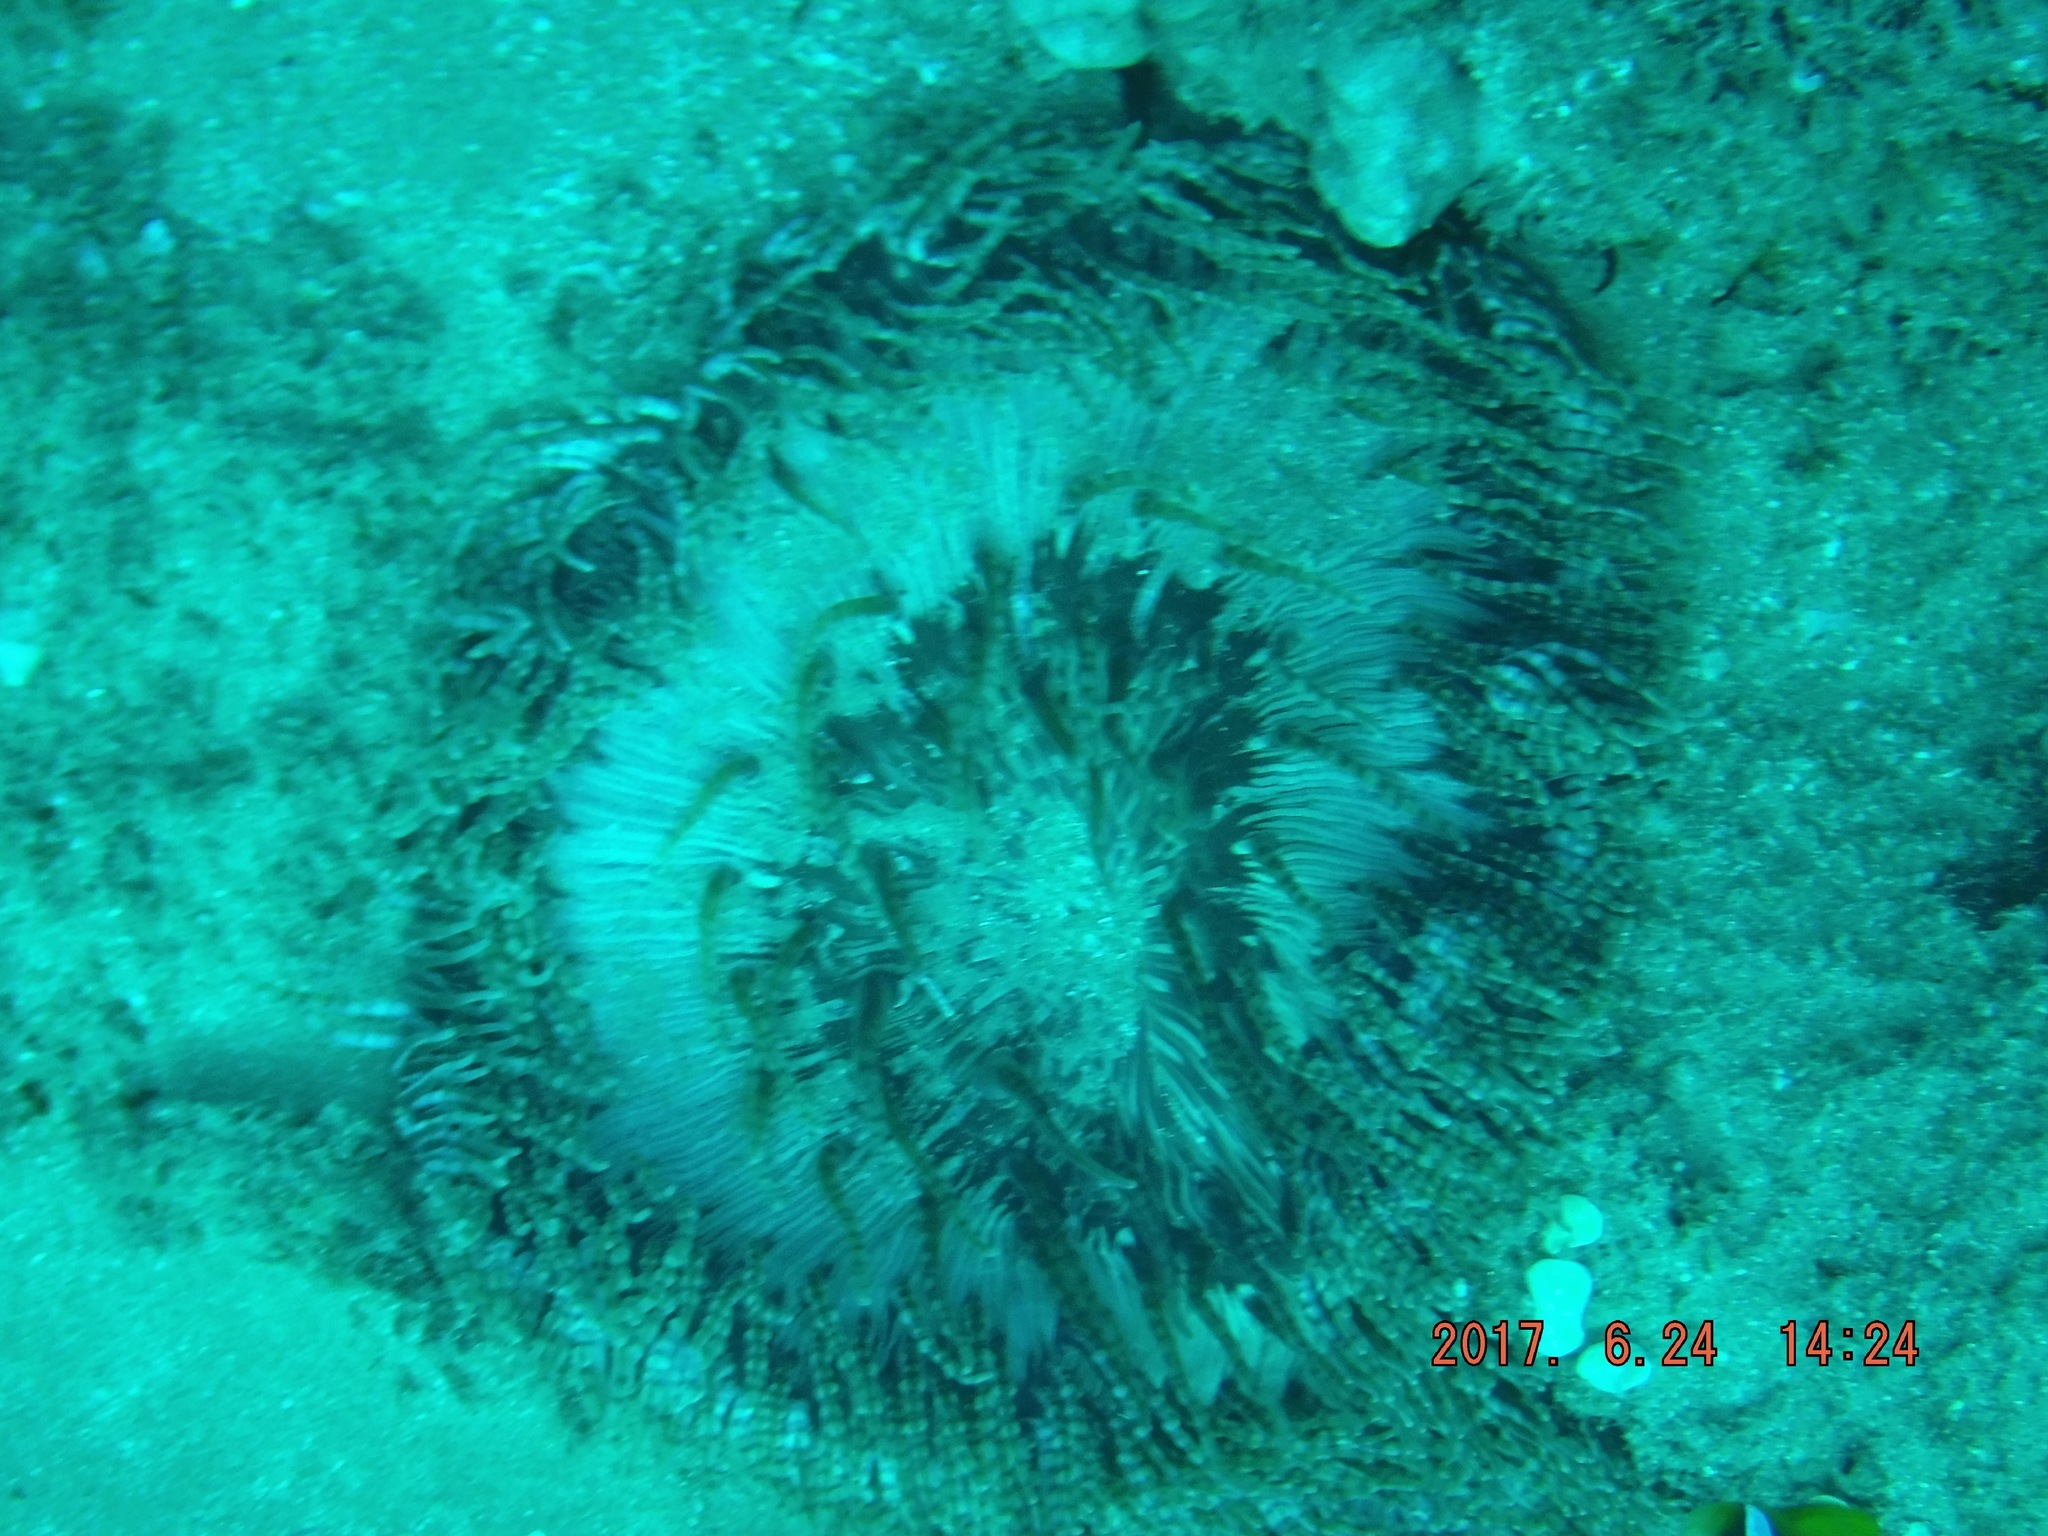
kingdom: Animalia
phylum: Cnidaria
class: Anthozoa
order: Actiniaria
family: Heteractidae
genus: Heteractis
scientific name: Heteractis aurora
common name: Beaded sea anemone
